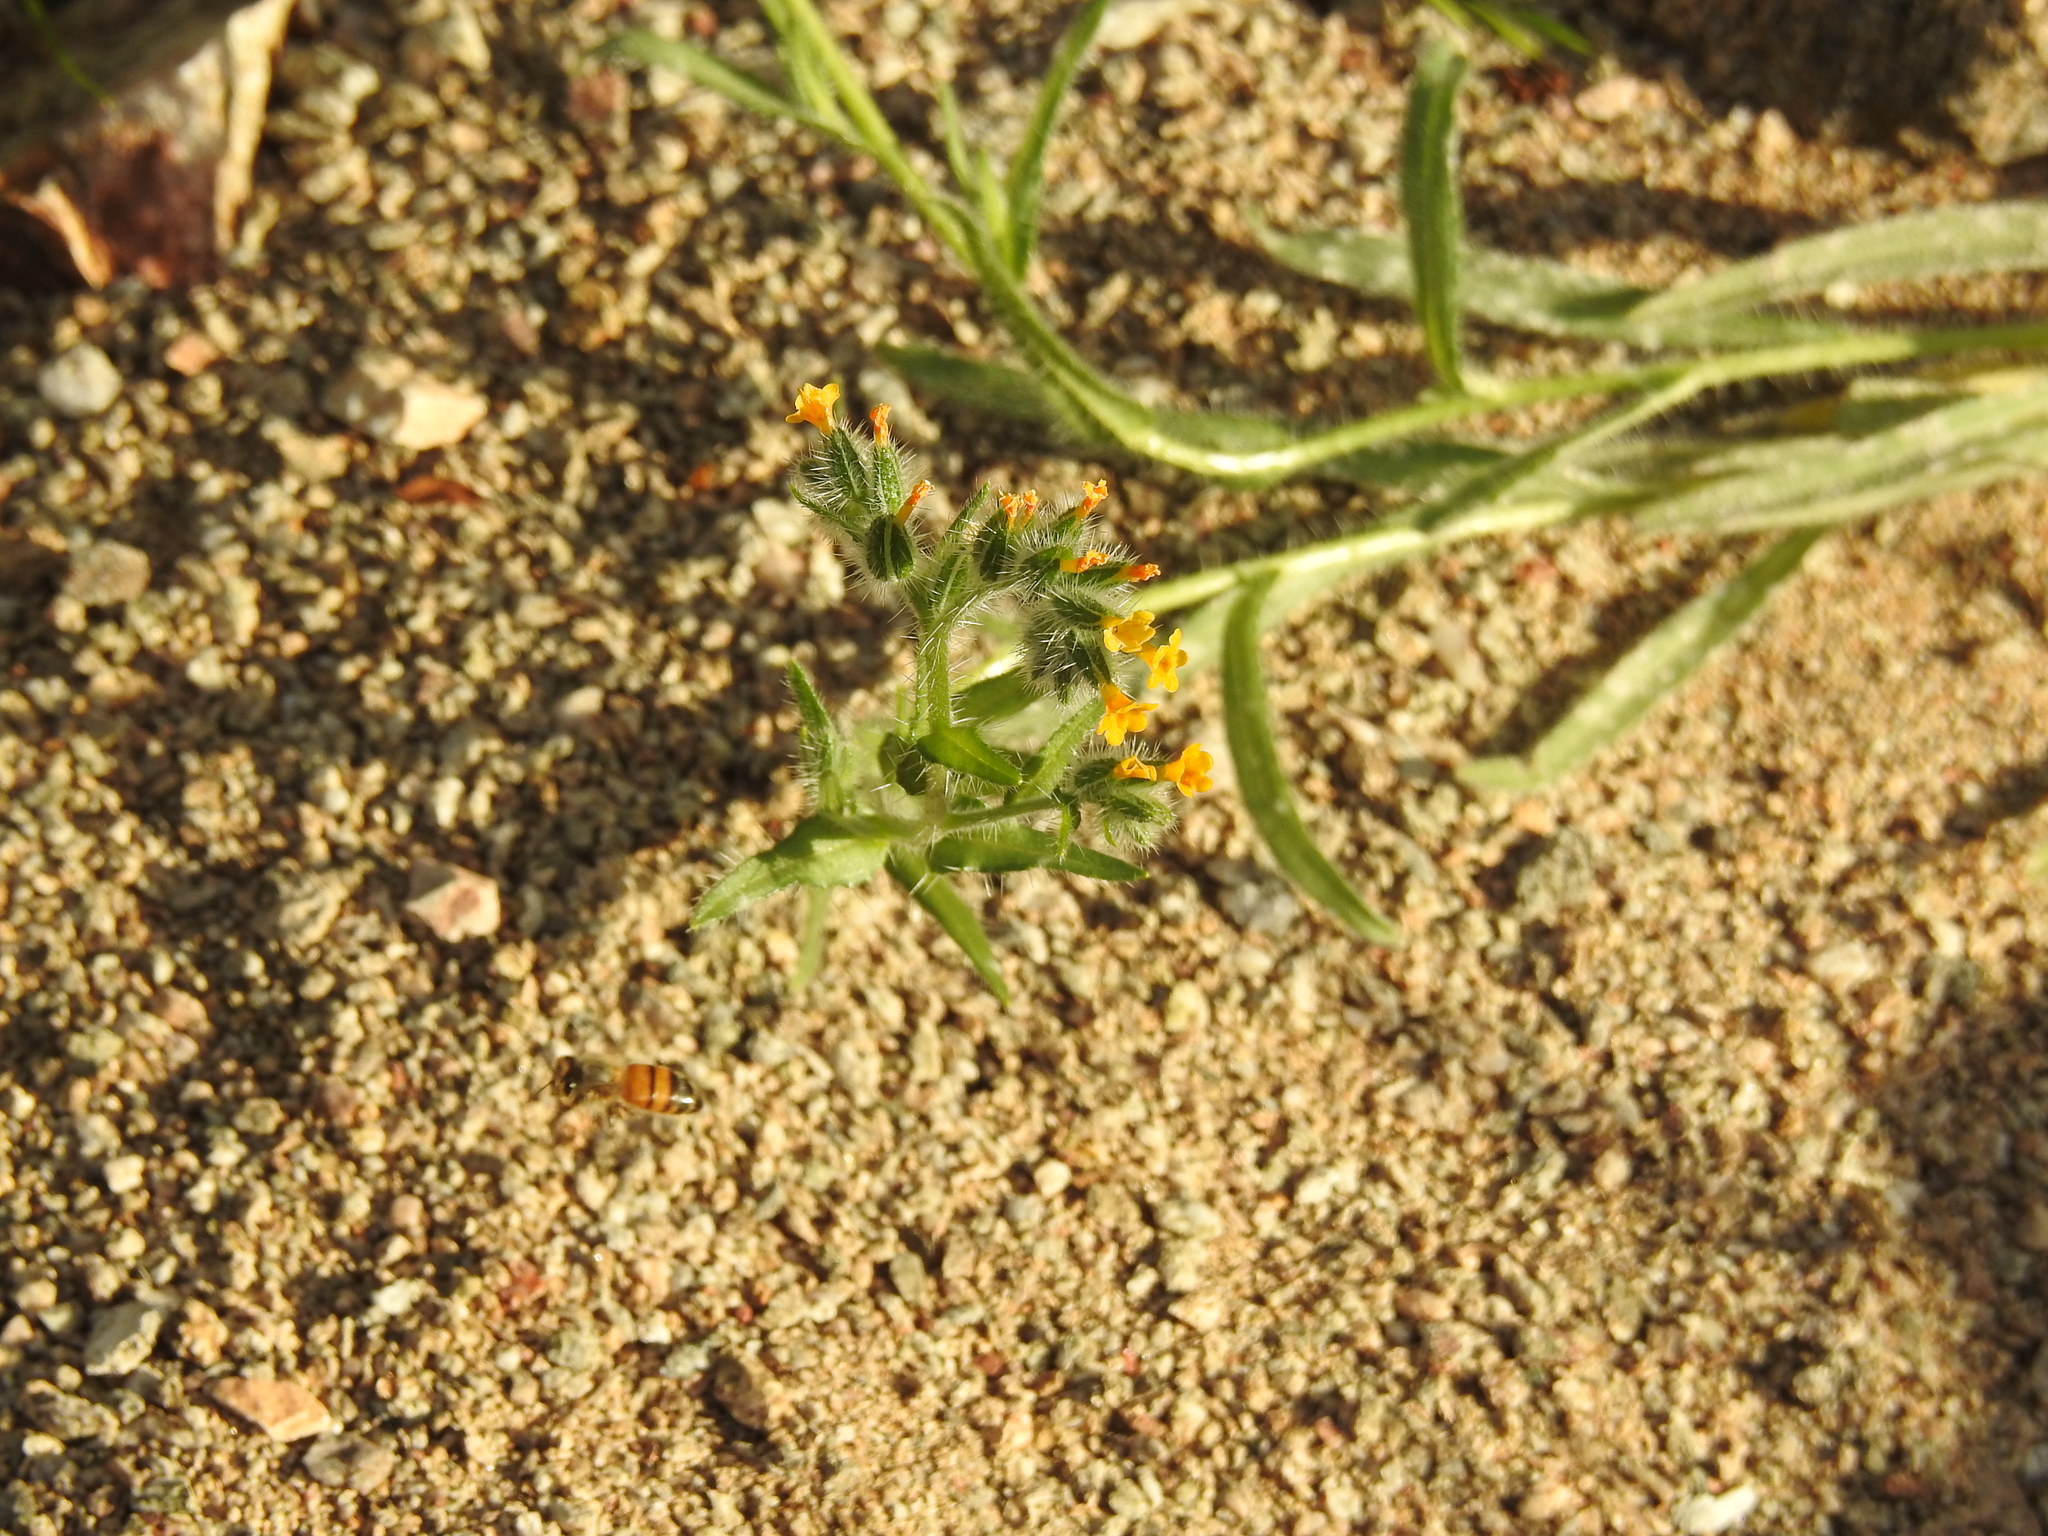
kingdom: Plantae
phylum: Tracheophyta
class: Magnoliopsida
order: Boraginales
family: Boraginaceae
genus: Amsinckia
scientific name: Amsinckia menziesii
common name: Menzies' fiddleneck
